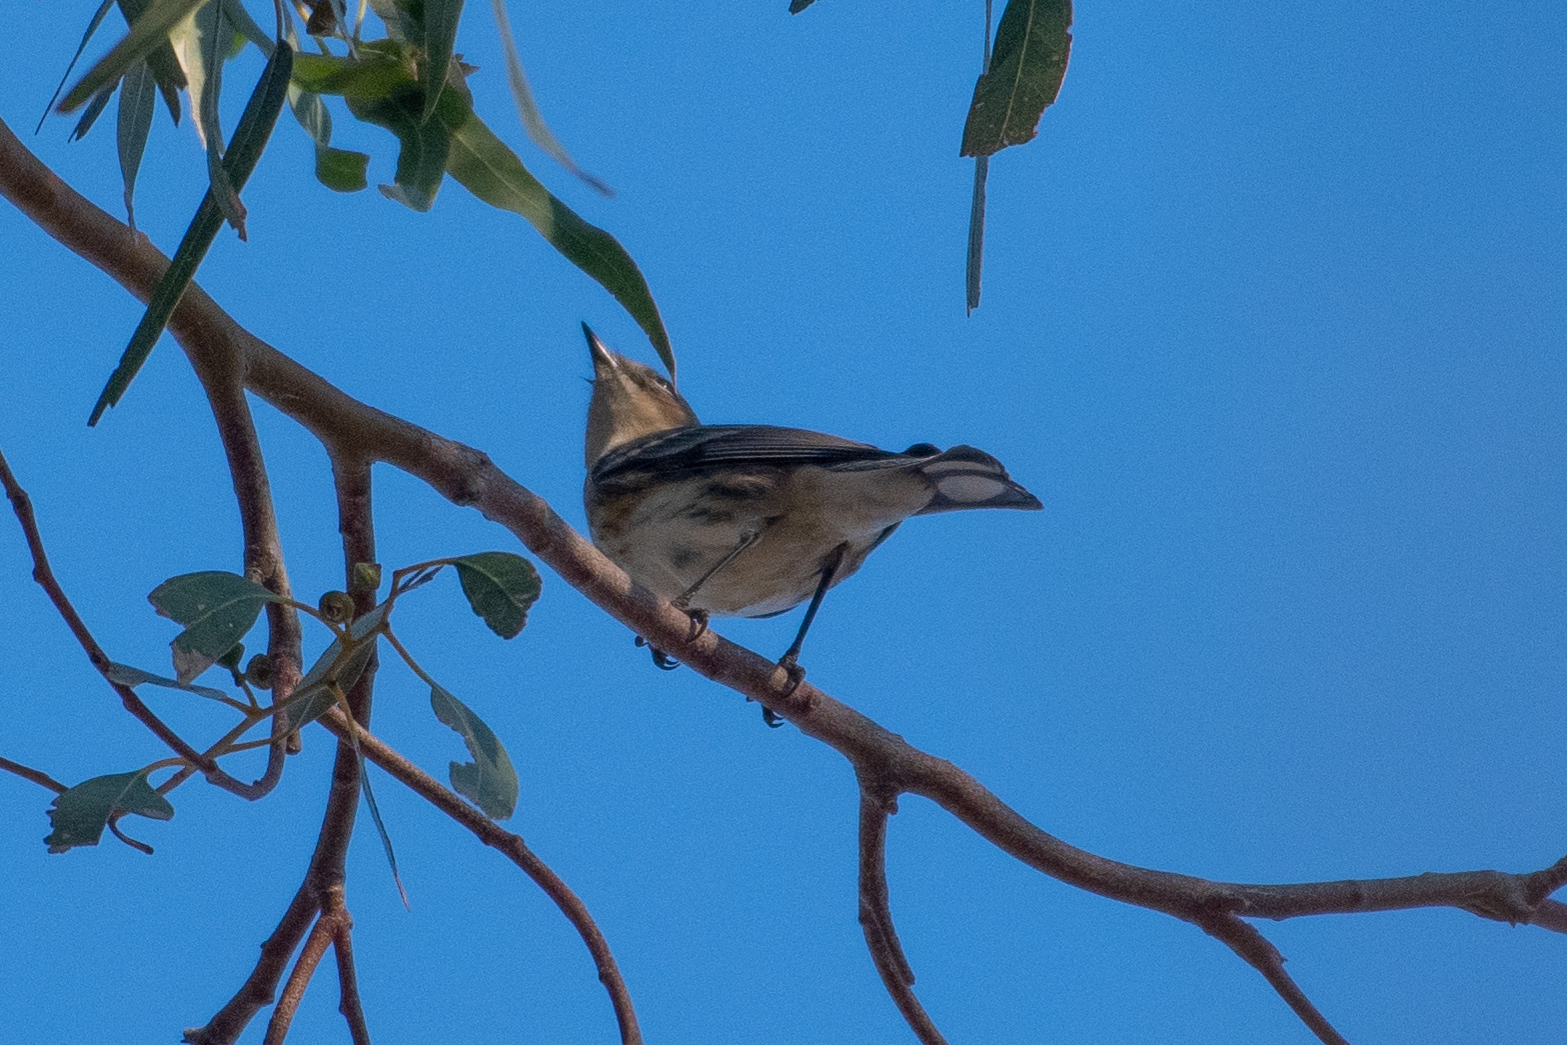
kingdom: Animalia
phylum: Chordata
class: Aves
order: Passeriformes
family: Parulidae
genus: Setophaga
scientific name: Setophaga coronata
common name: Myrtle warbler
